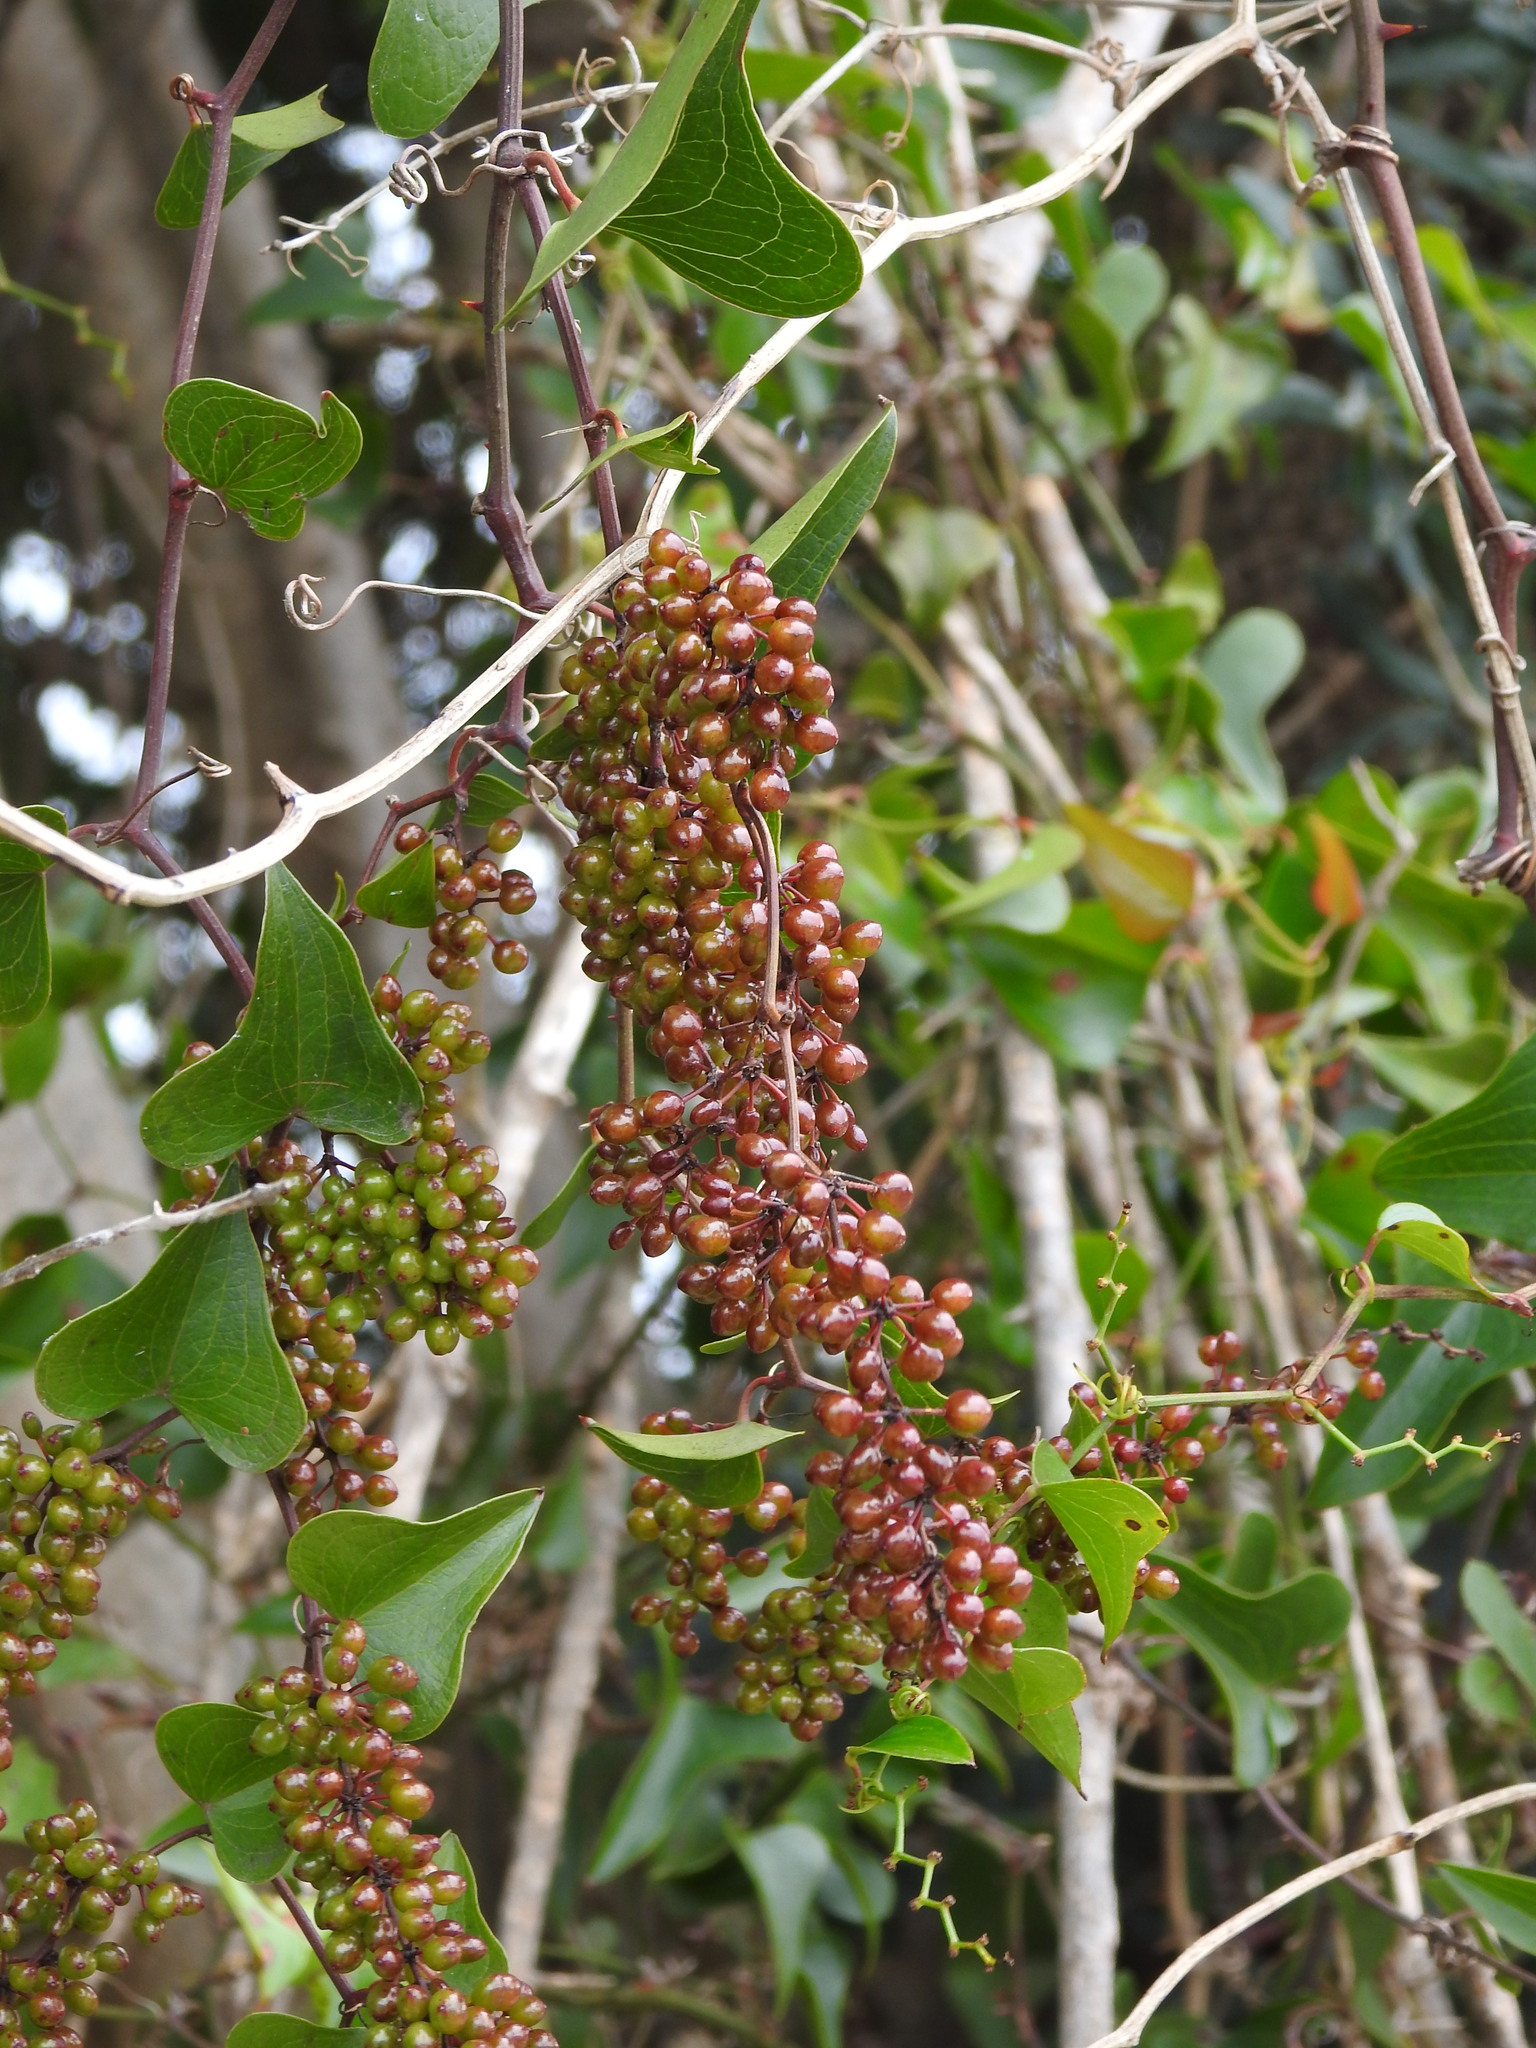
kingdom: Plantae
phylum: Tracheophyta
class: Liliopsida
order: Liliales
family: Smilacaceae
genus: Smilax
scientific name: Smilax aspera
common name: Common smilax
